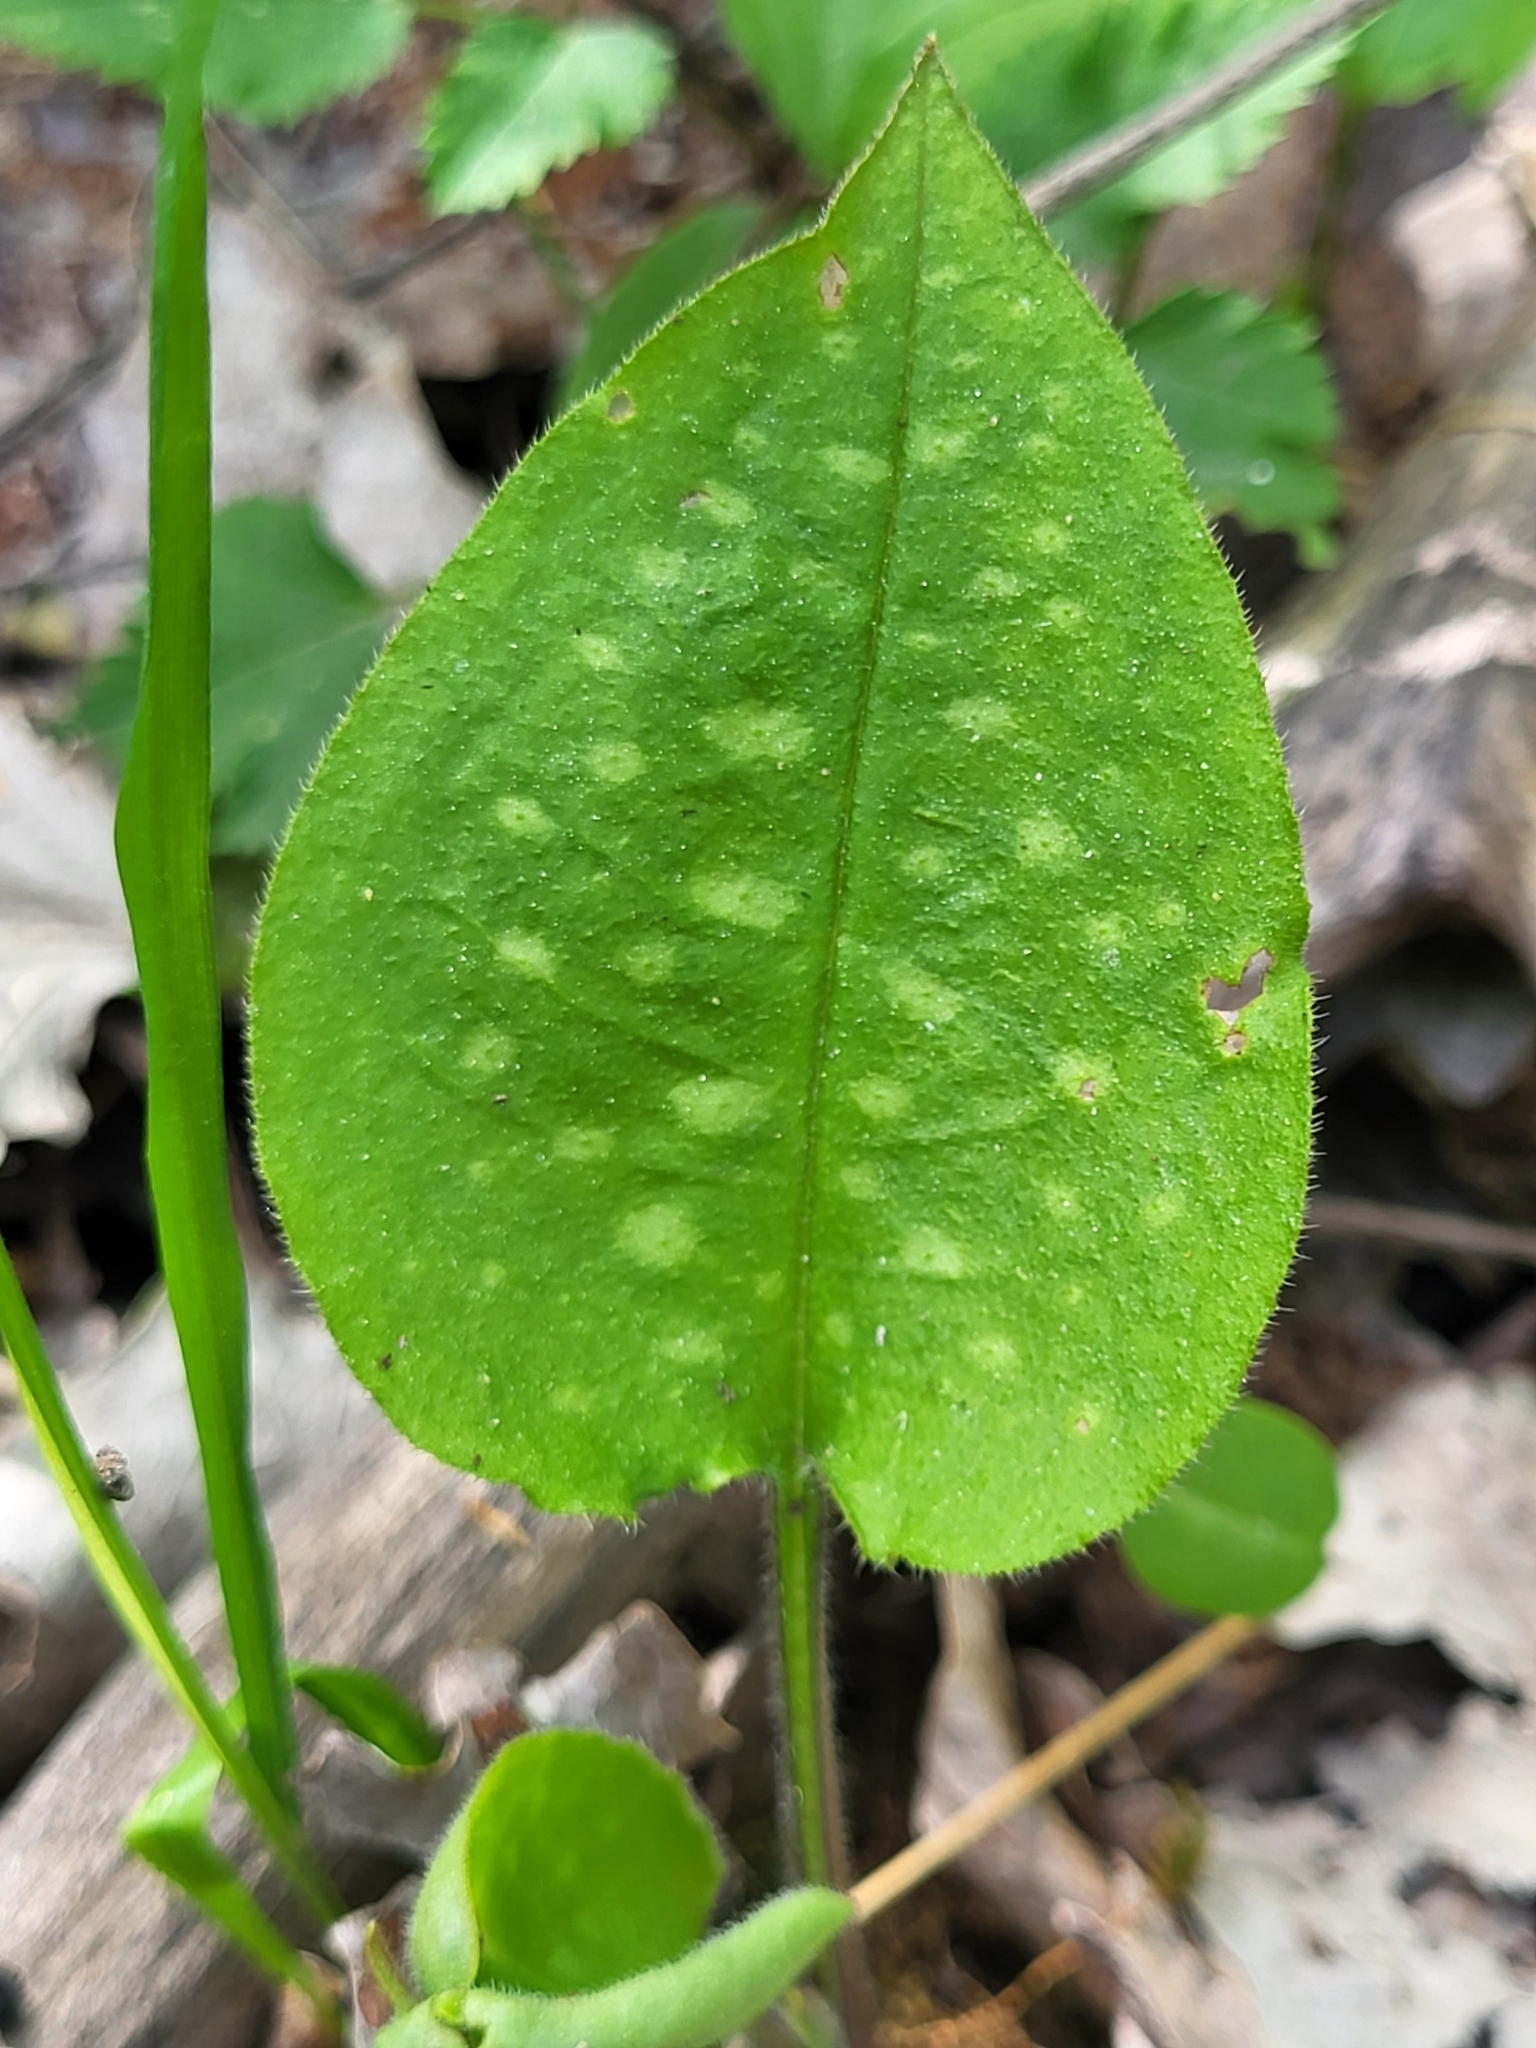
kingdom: Plantae
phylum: Tracheophyta
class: Magnoliopsida
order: Boraginales
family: Boraginaceae
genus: Pulmonaria
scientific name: Pulmonaria officinalis
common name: Lungwort
